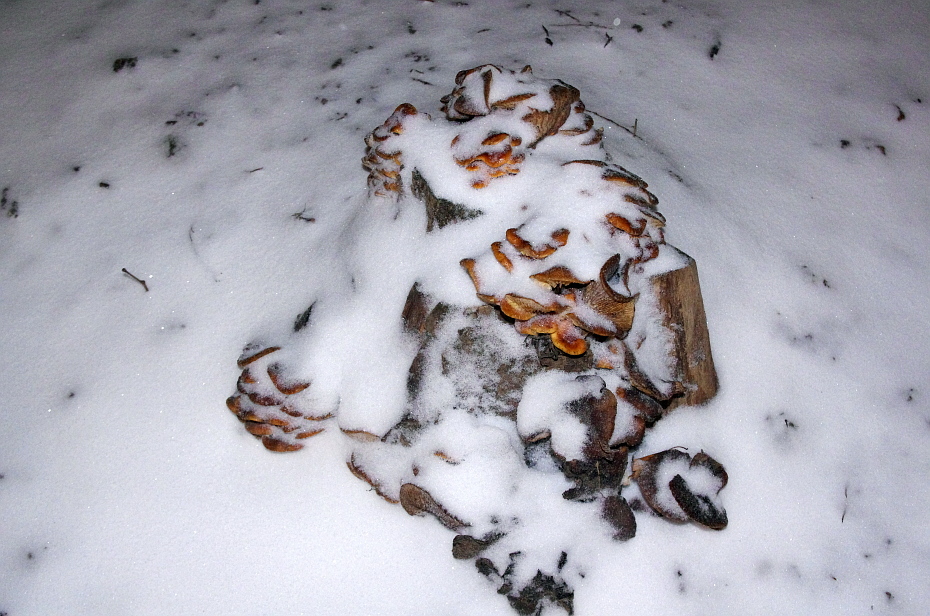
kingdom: Fungi
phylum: Basidiomycota
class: Agaricomycetes
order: Agaricales
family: Physalacriaceae
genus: Flammulina
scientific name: Flammulina
